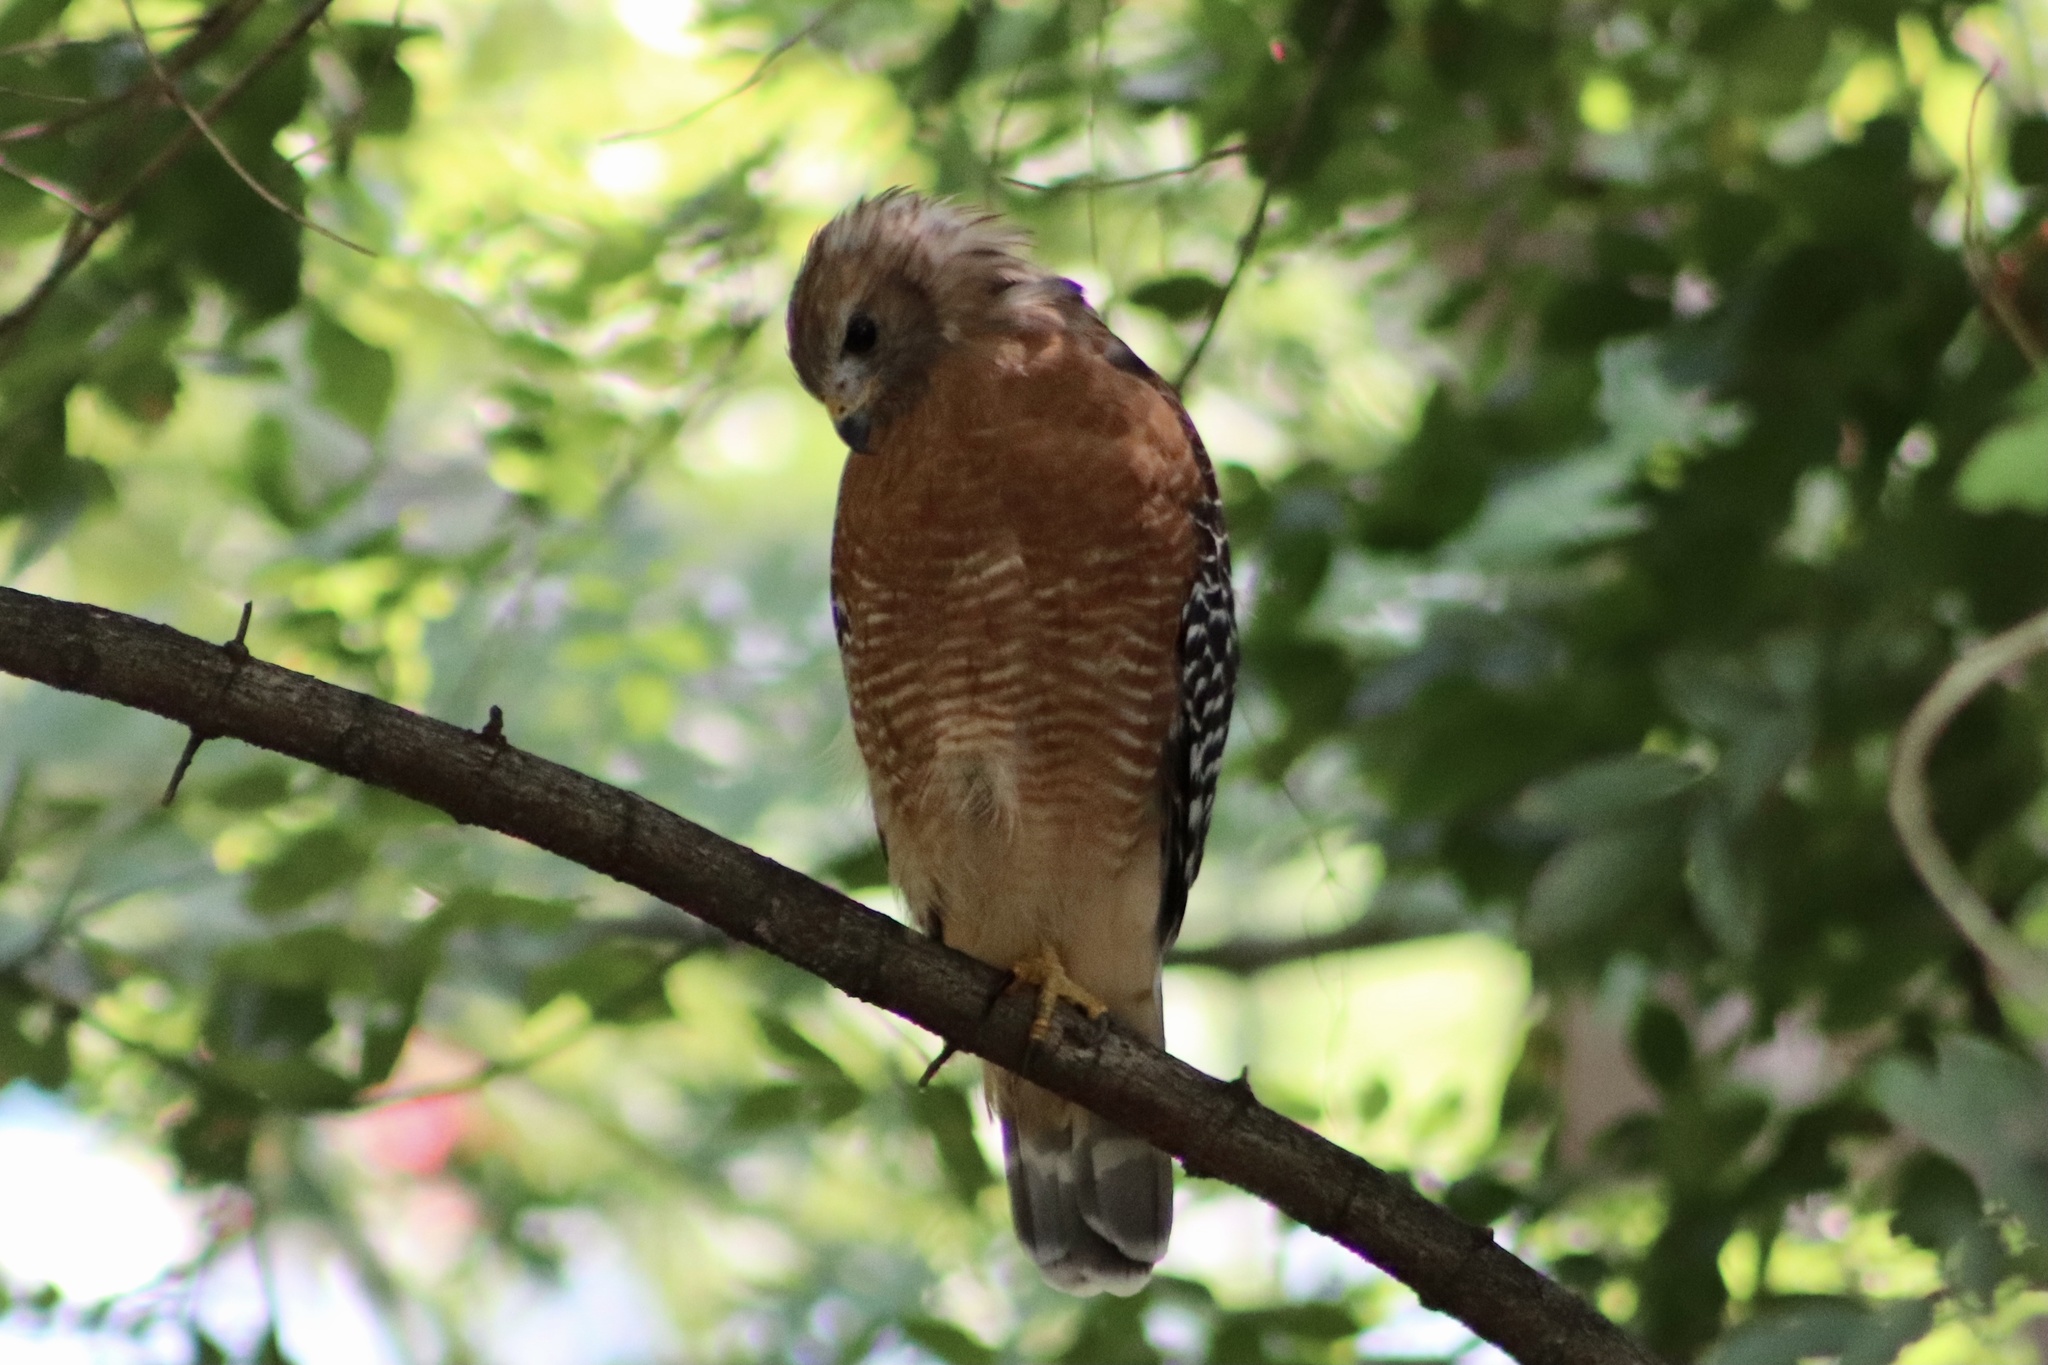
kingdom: Animalia
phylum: Chordata
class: Aves
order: Accipitriformes
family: Accipitridae
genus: Buteo
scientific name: Buteo lineatus
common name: Red-shouldered hawk
